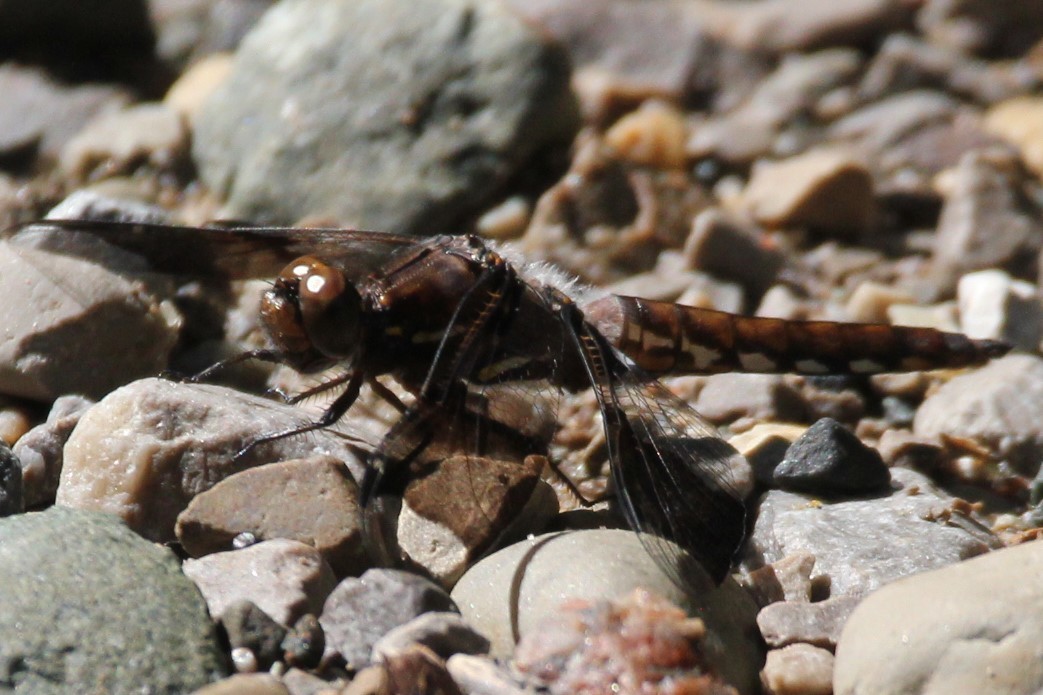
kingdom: Animalia
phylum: Arthropoda
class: Insecta
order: Odonata
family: Libellulidae
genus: Plathemis
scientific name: Plathemis lydia
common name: Common whitetail
